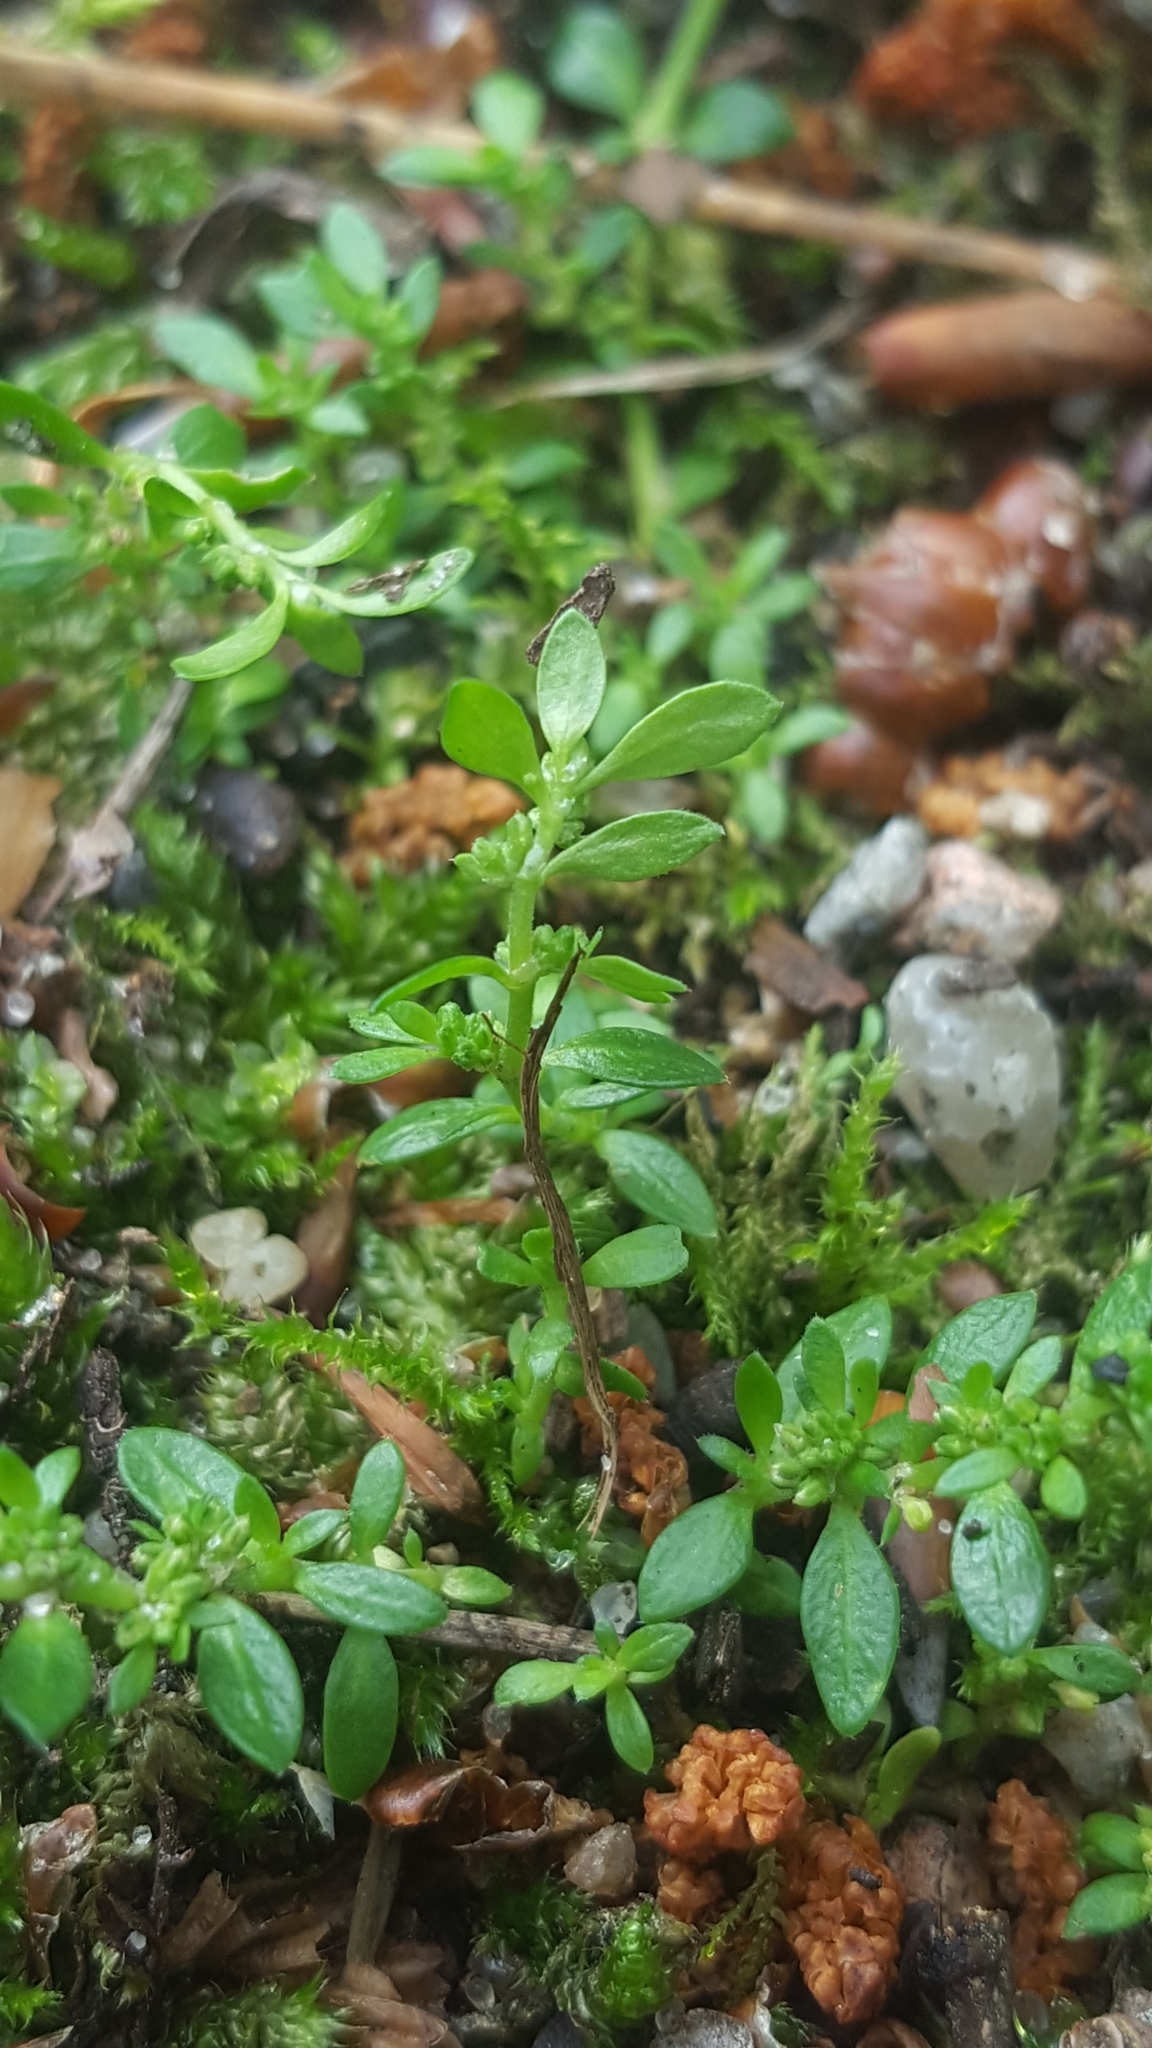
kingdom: Plantae
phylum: Tracheophyta
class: Magnoliopsida
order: Caryophyllales
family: Caryophyllaceae
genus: Herniaria
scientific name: Herniaria glabra
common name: Smooth rupturewort
